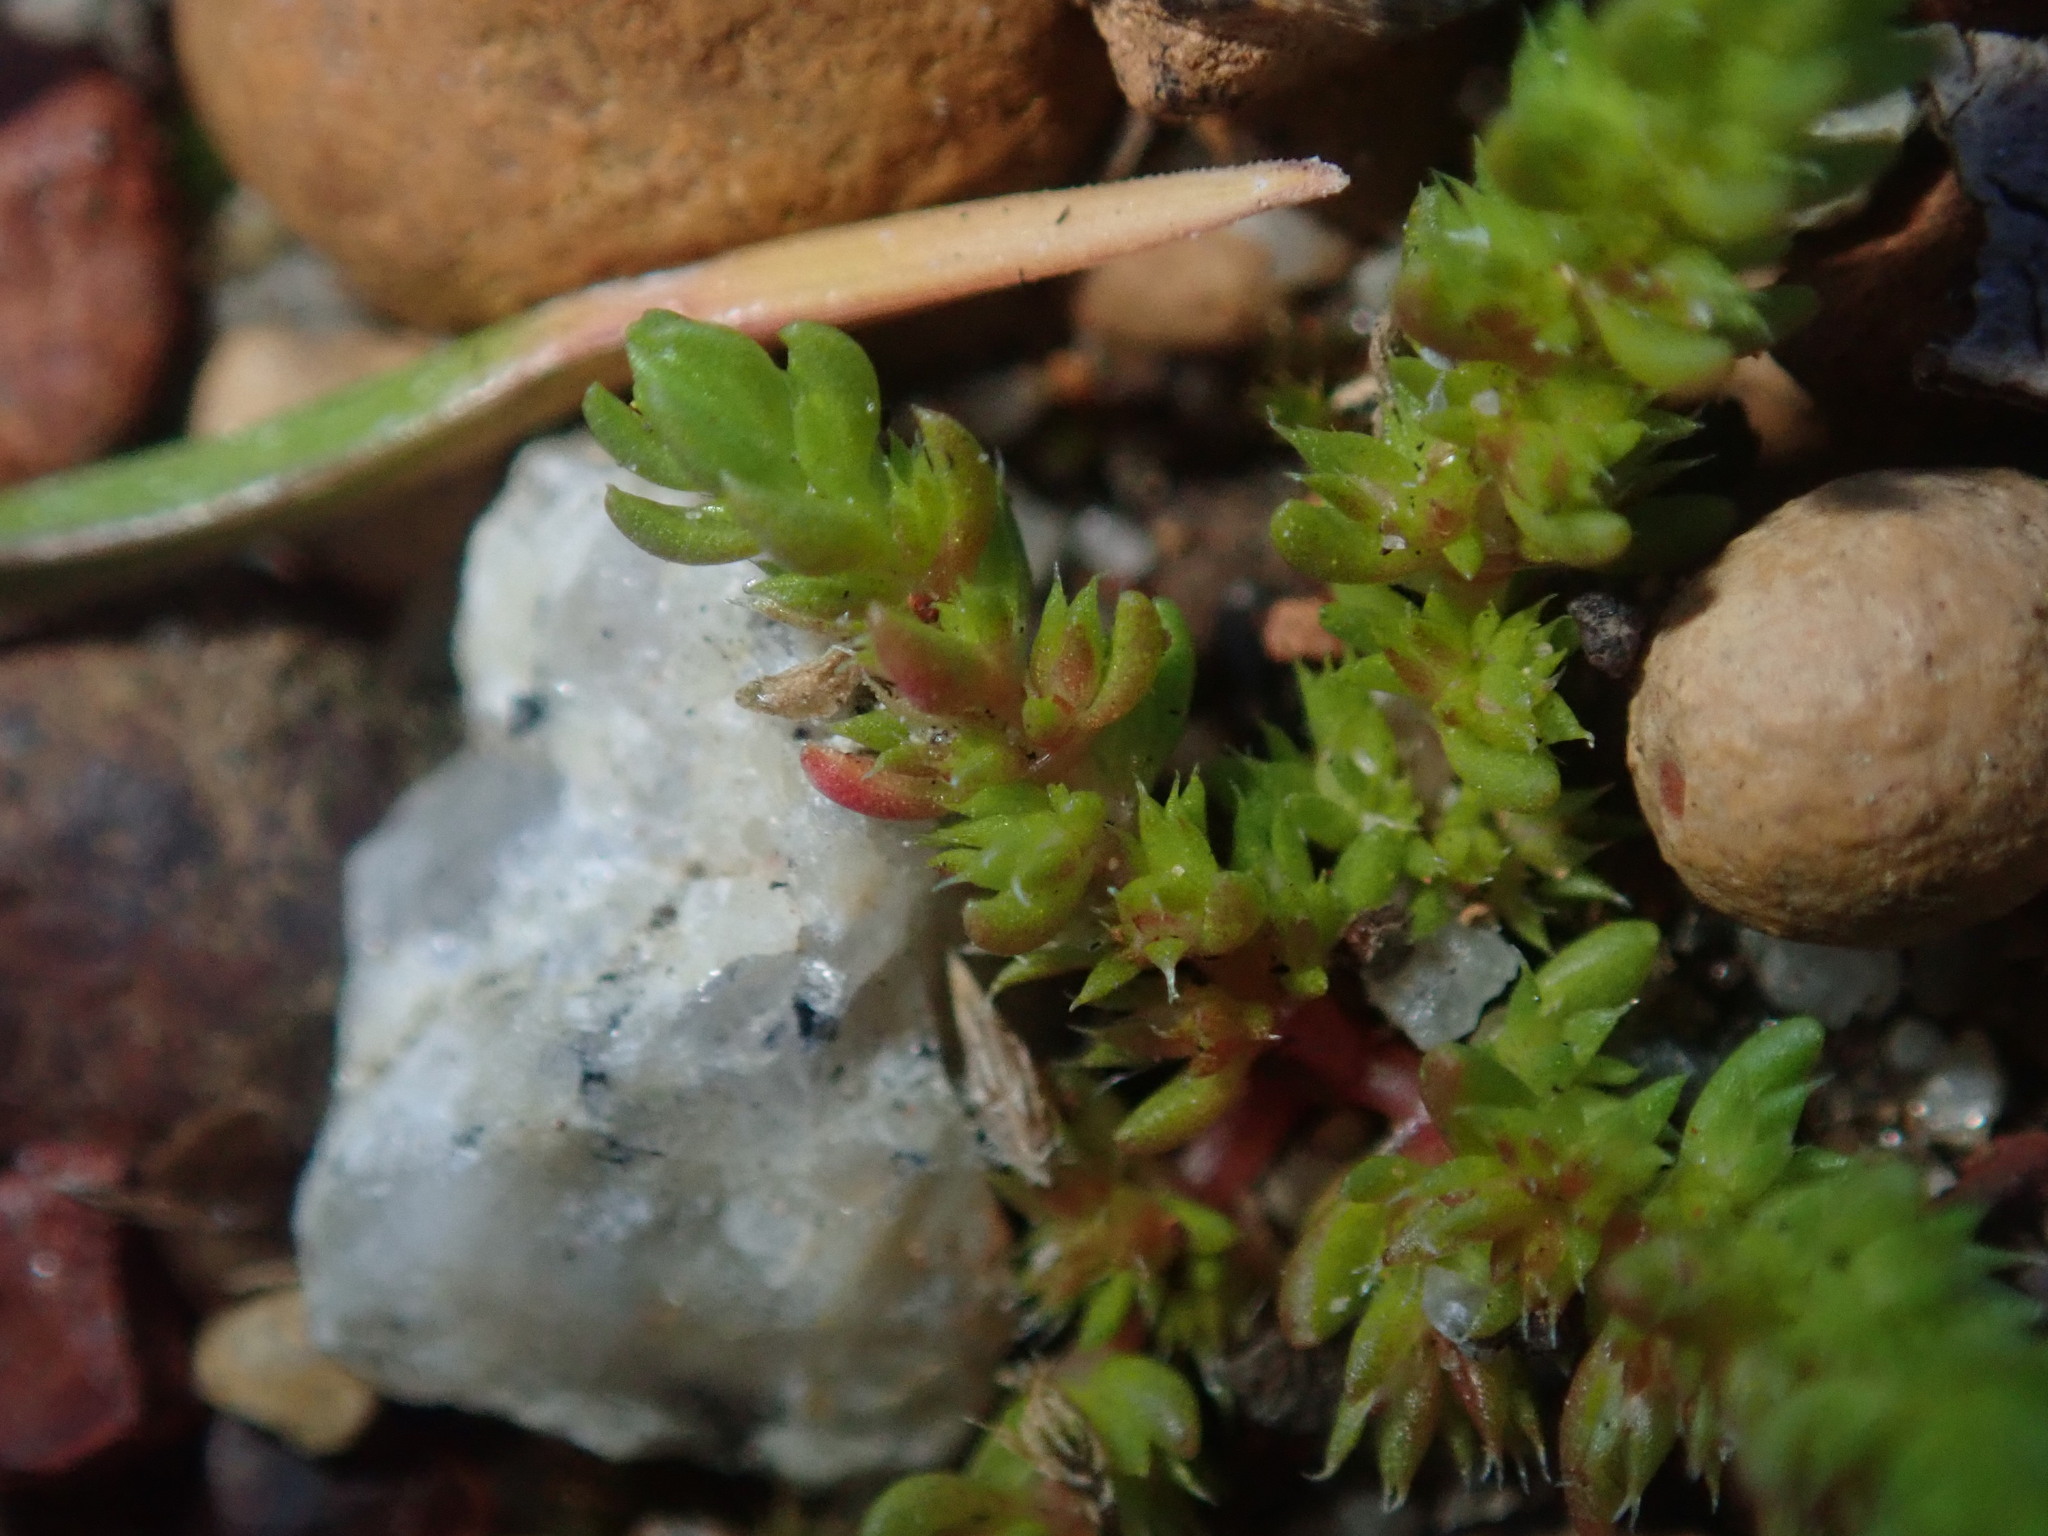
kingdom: Plantae
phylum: Tracheophyta
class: Magnoliopsida
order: Saxifragales
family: Crassulaceae
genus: Crassula
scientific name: Crassula colorata
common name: Dense pigmyweed
